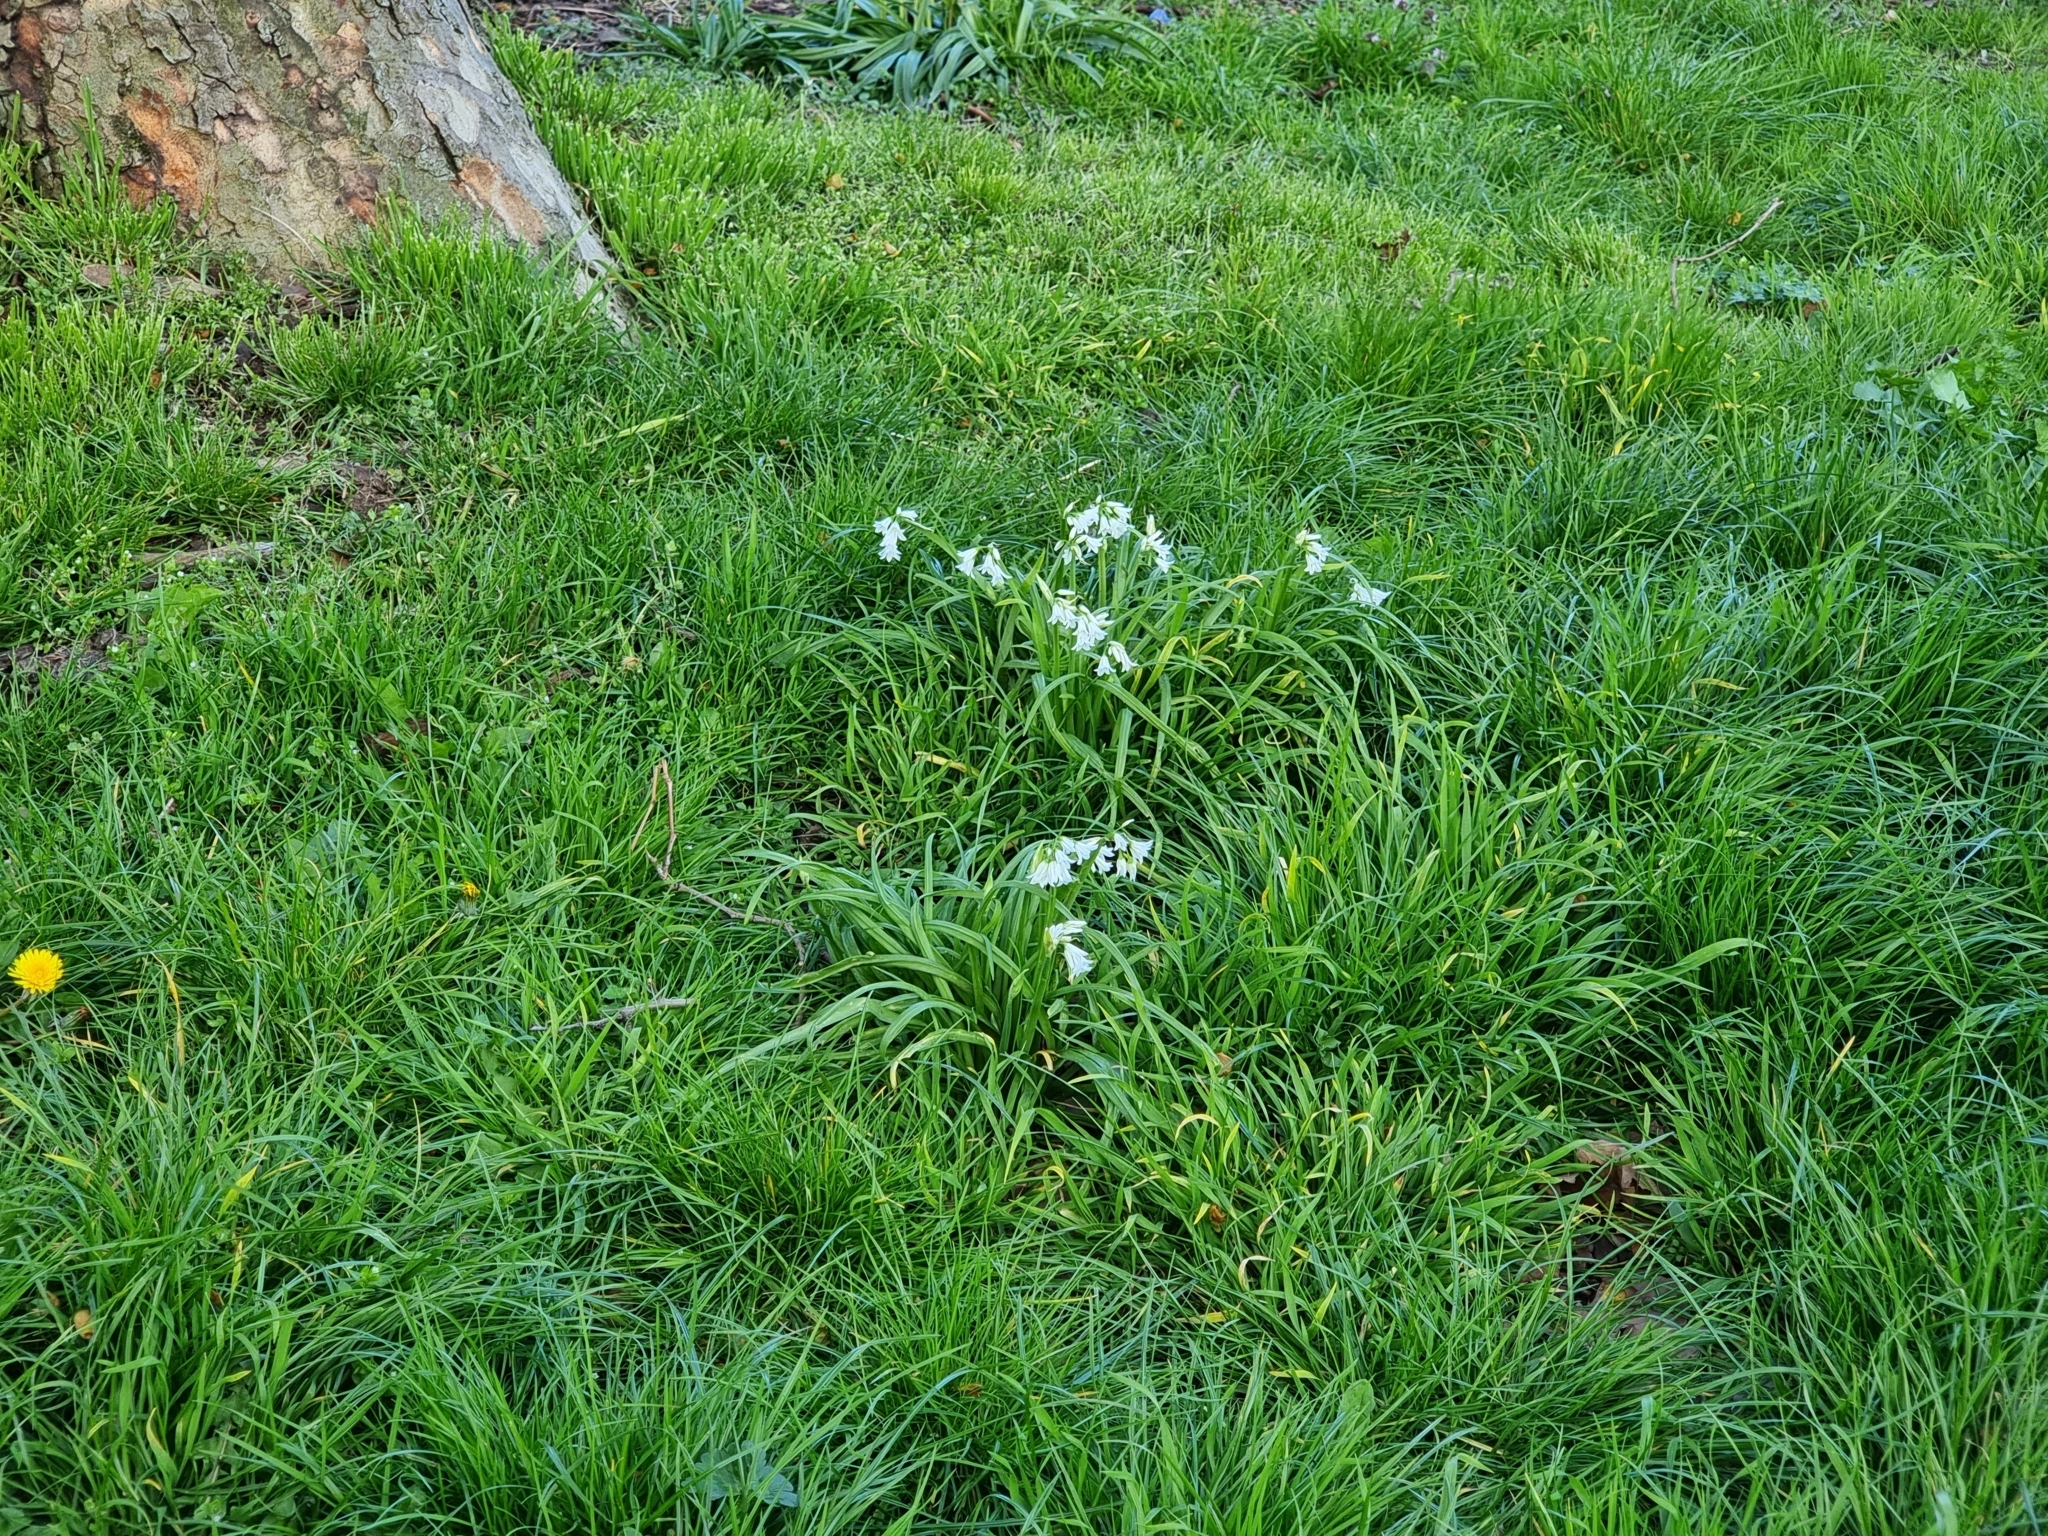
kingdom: Plantae
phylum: Tracheophyta
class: Liliopsida
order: Asparagales
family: Amaryllidaceae
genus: Allium
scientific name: Allium triquetrum
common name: Three-cornered garlic
